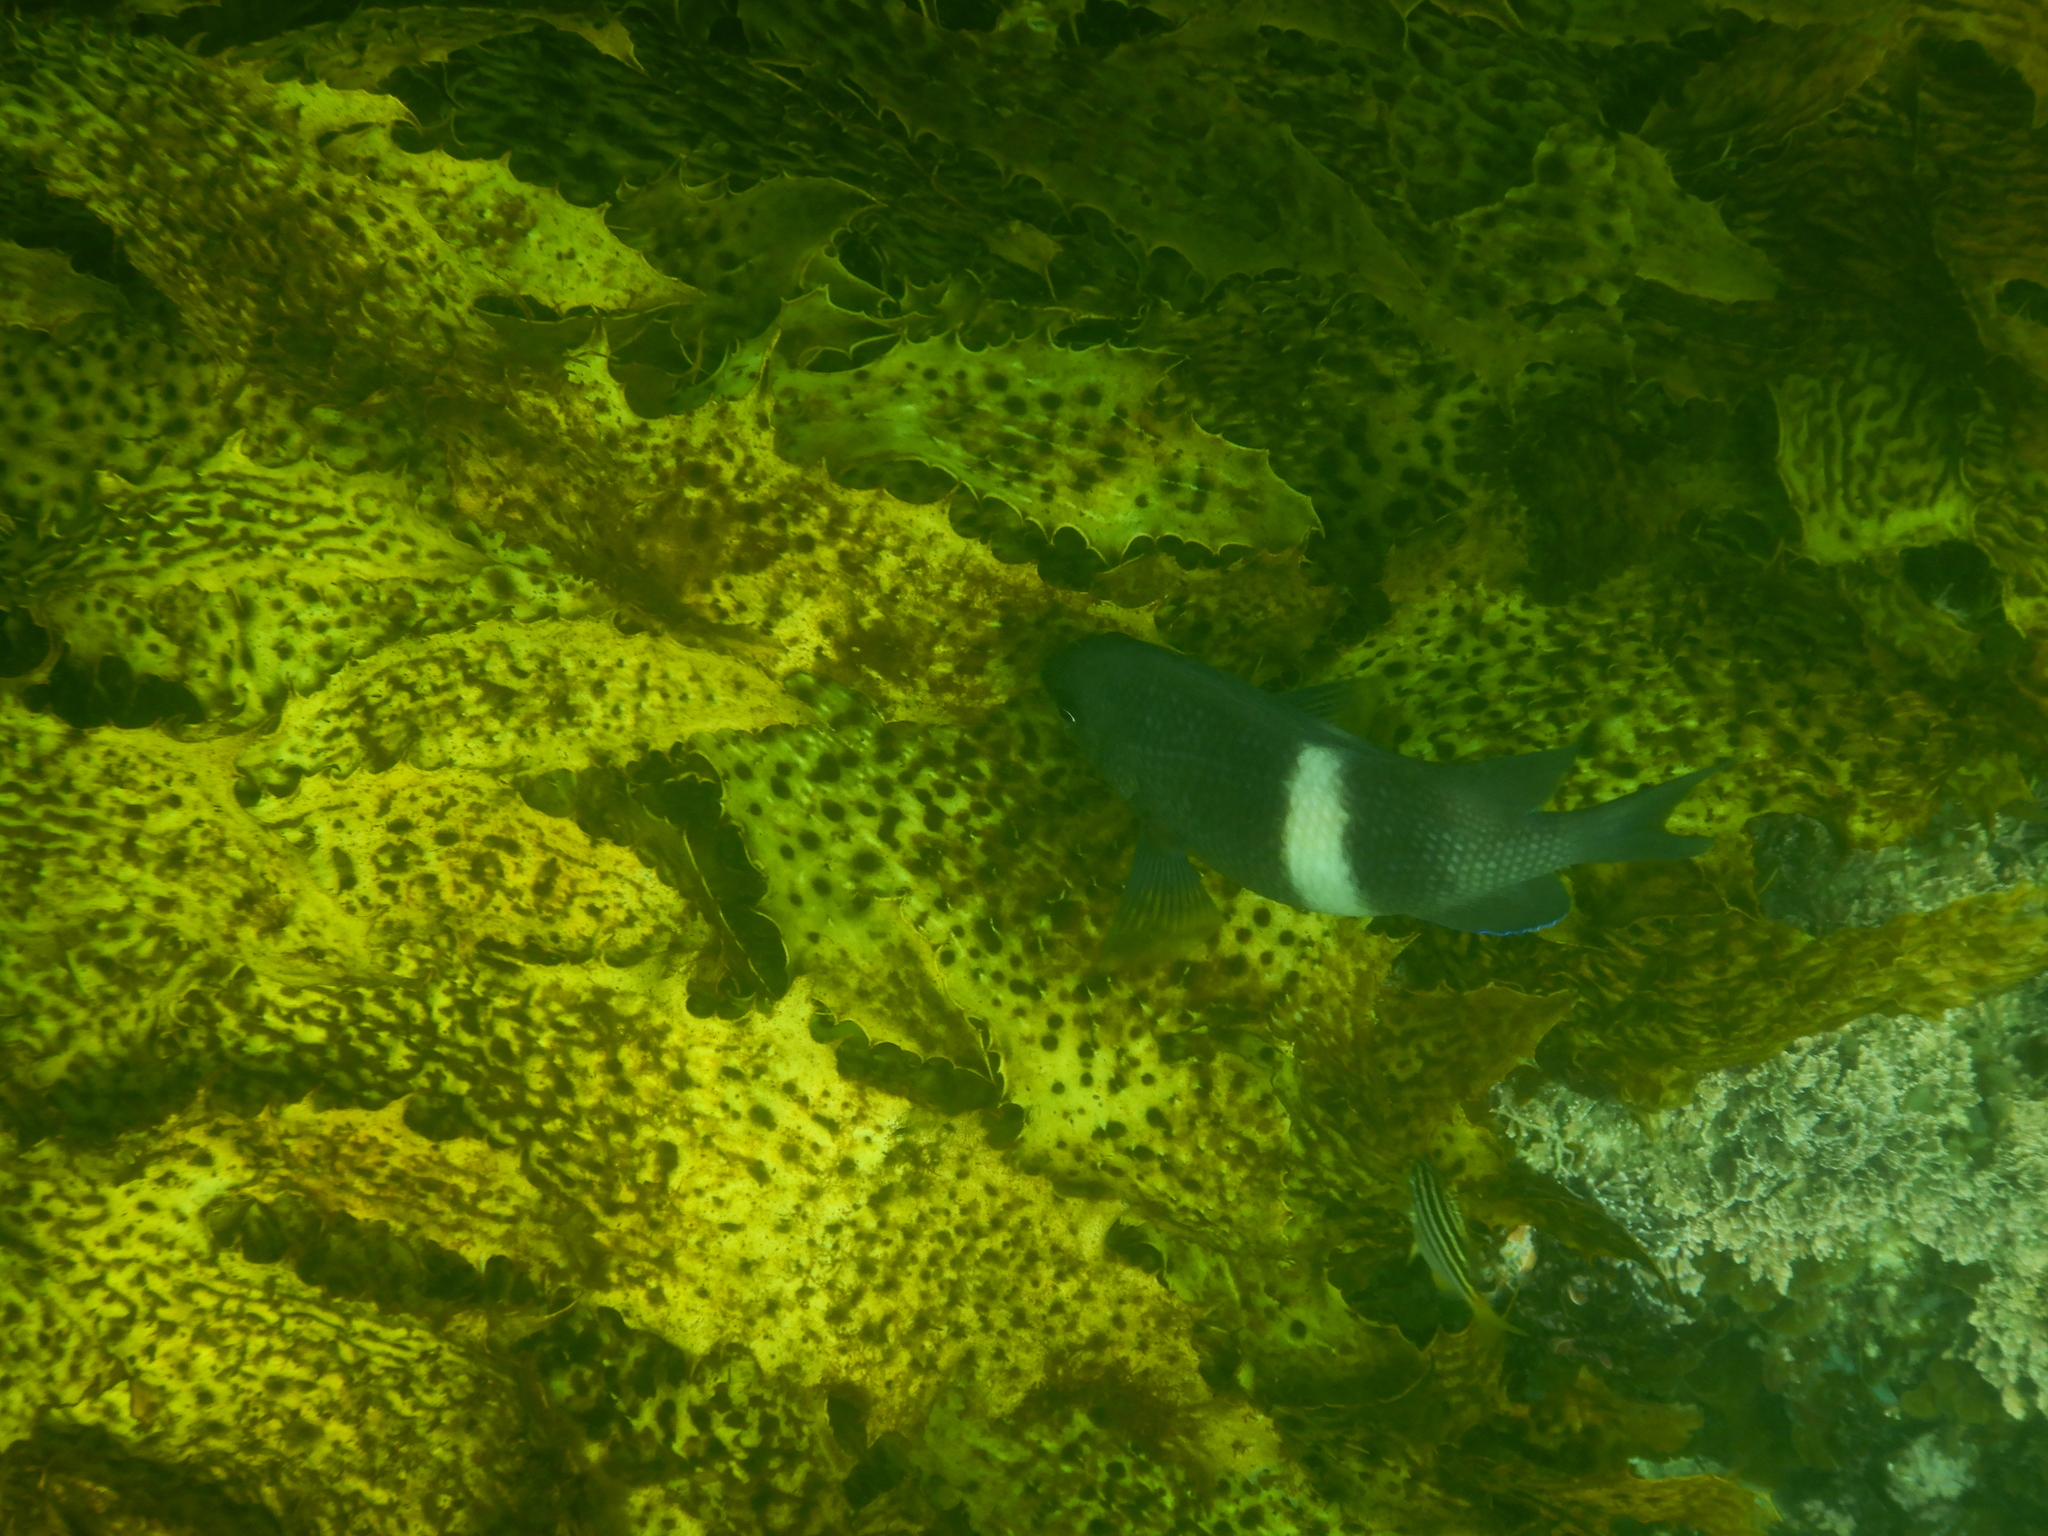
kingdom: Animalia
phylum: Chordata
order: Perciformes
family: Pomacentridae
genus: Parma
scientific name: Parma unifasciata
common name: Girdled parma
